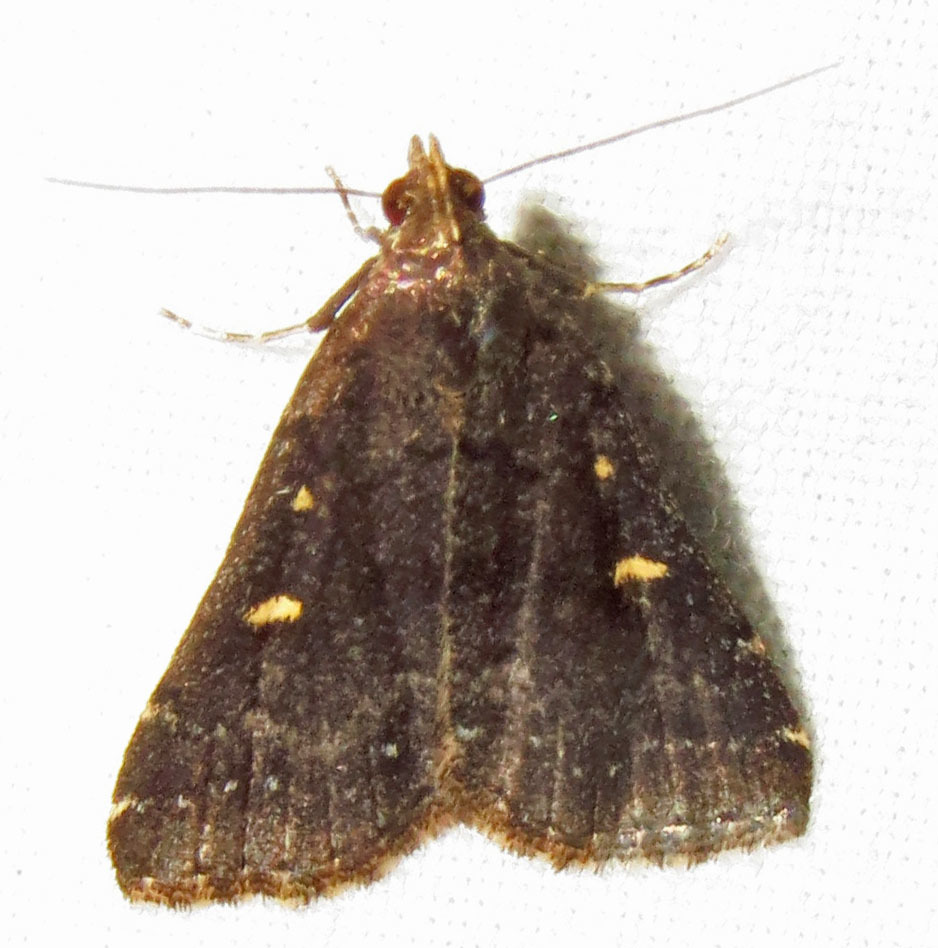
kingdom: Animalia
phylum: Arthropoda
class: Insecta
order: Lepidoptera
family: Erebidae
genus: Tetanolita
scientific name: Tetanolita mynesalis
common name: Smoky tetanolita moth
